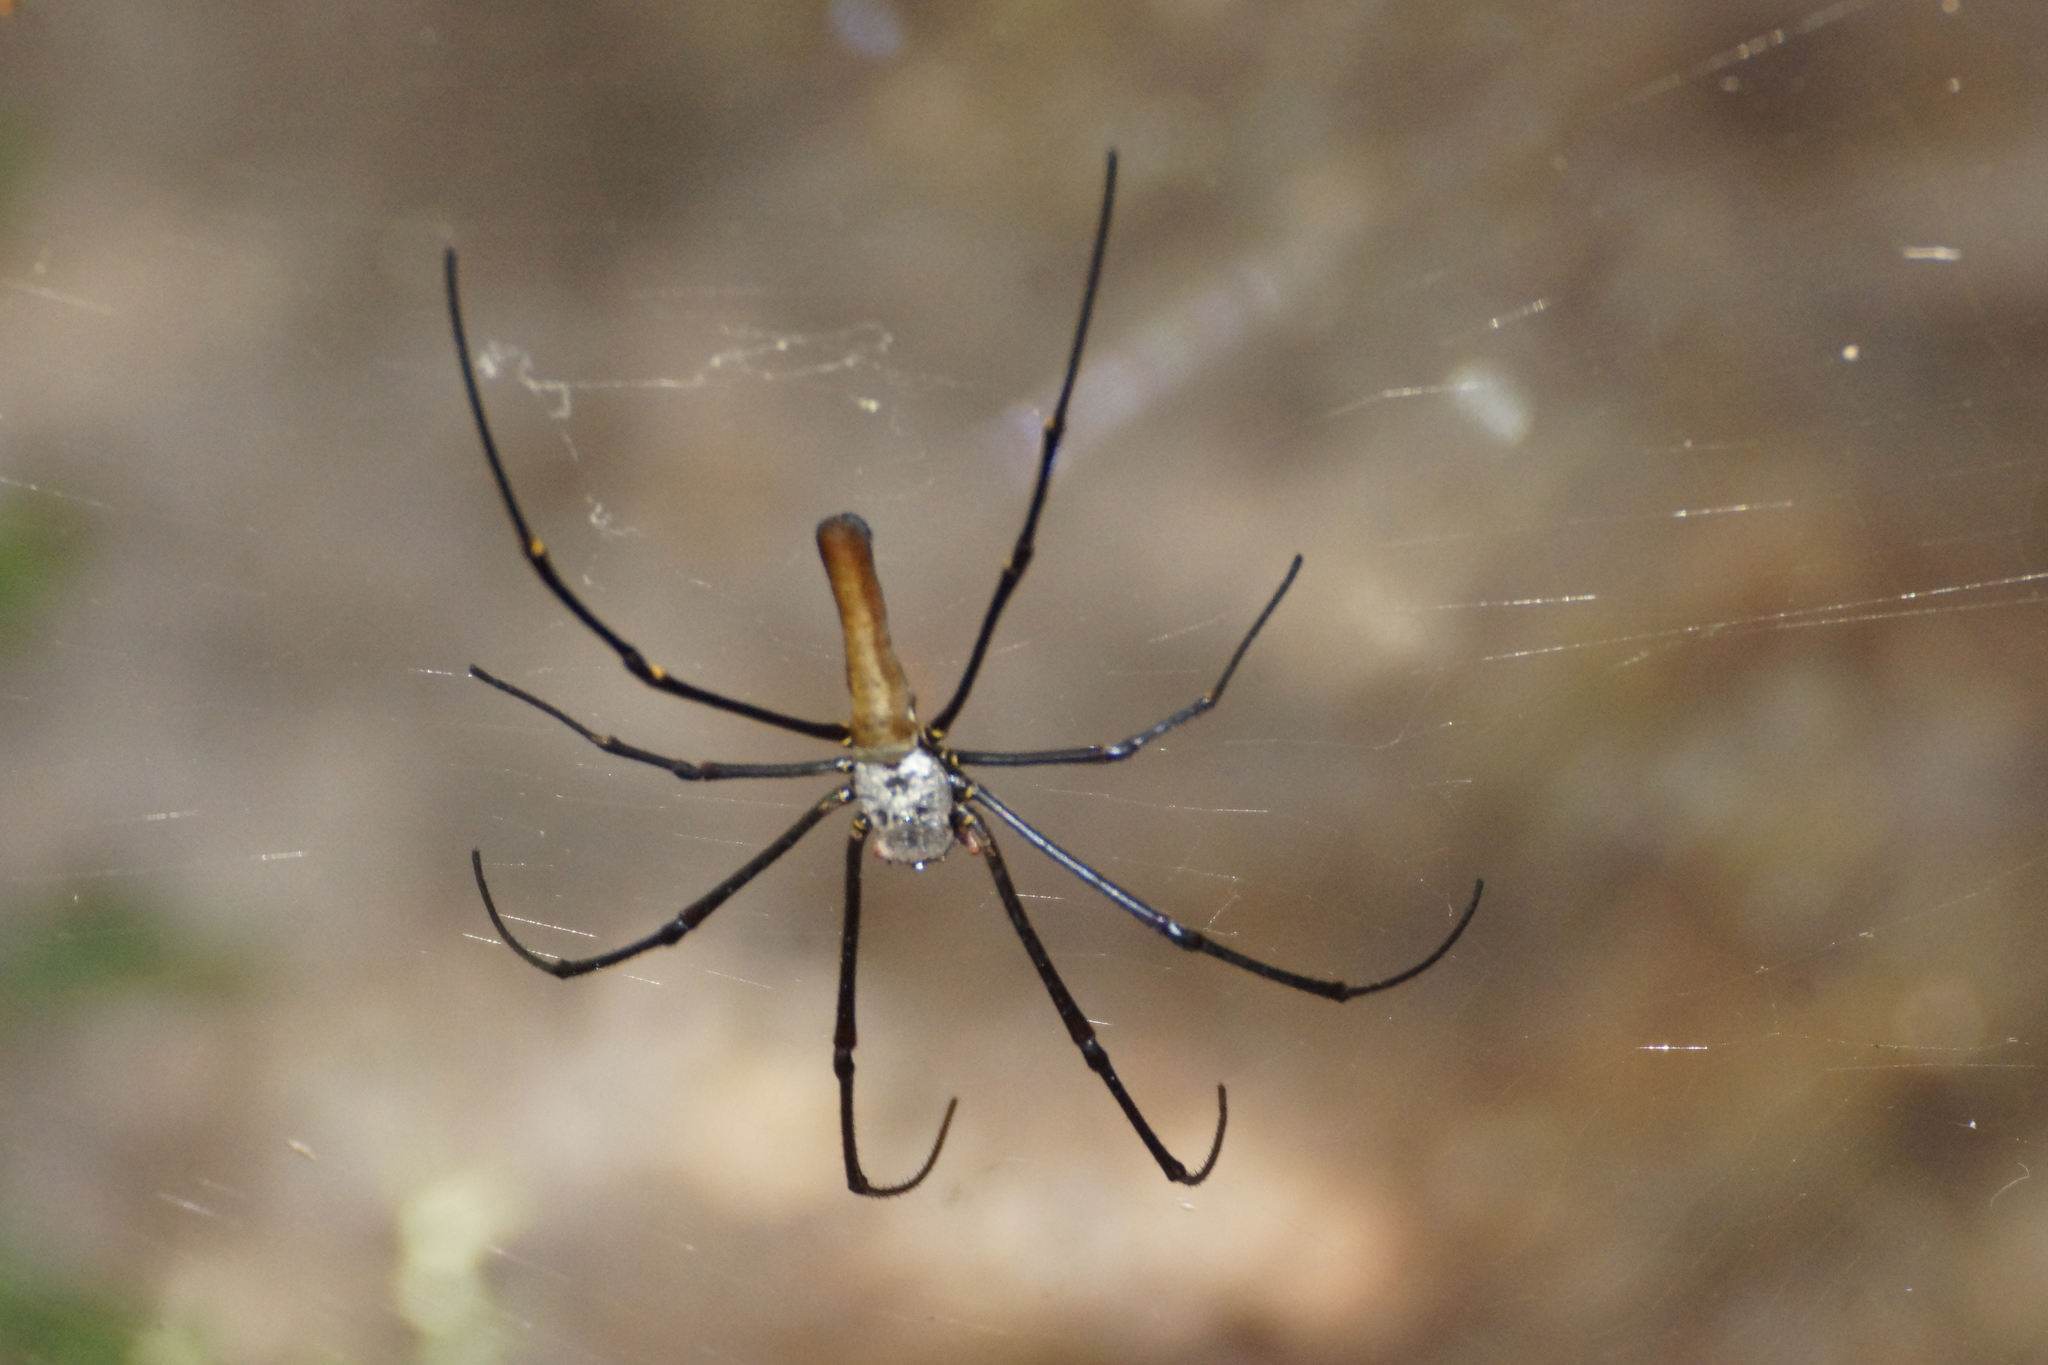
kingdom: Animalia
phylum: Arthropoda
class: Arachnida
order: Araneae
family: Araneidae
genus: Nephila
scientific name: Nephila pilipes
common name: Giant golden orb weaver
